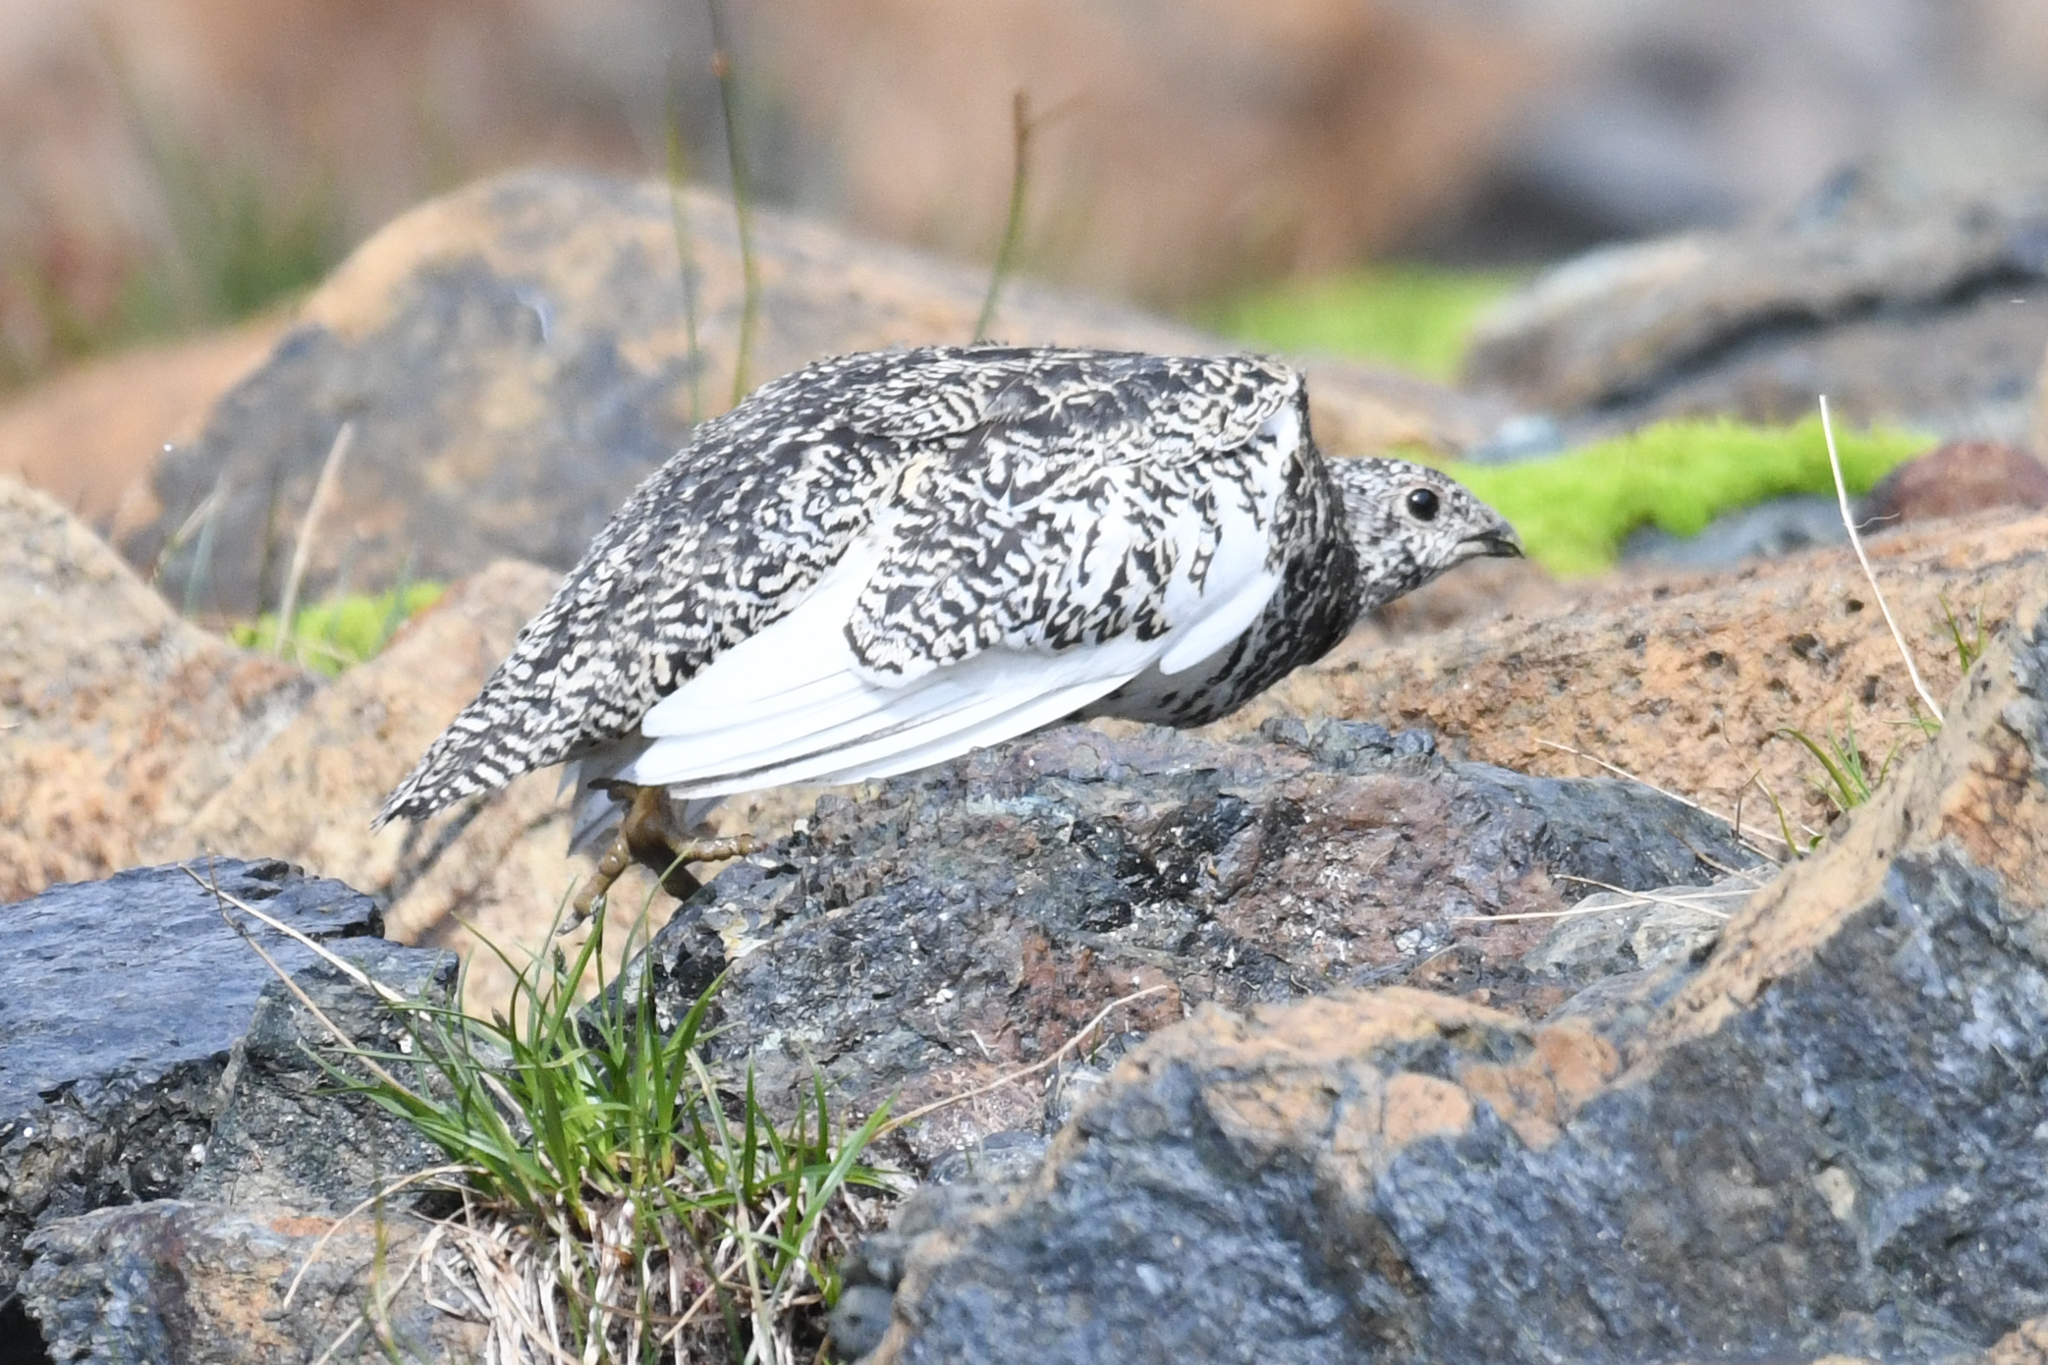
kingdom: Animalia
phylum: Chordata
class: Aves
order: Galliformes
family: Phasianidae
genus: Lagopus
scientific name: Lagopus leucura
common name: White-tailed ptarmigan
